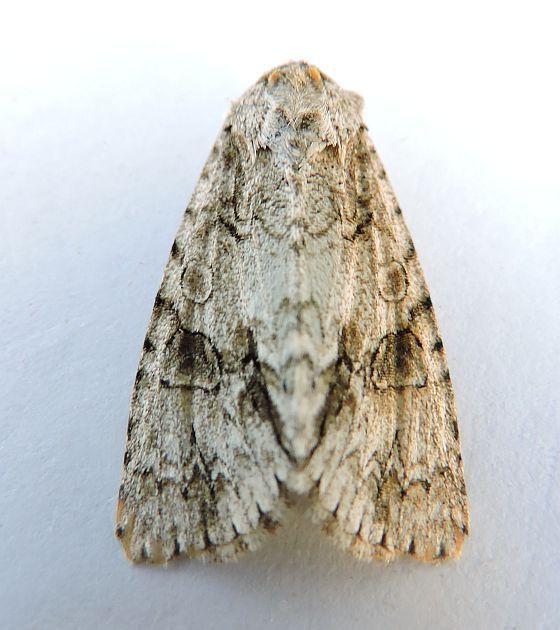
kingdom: Animalia
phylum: Arthropoda
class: Insecta
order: Lepidoptera
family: Noctuidae
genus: Acronicta
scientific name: Acronicta beameri
